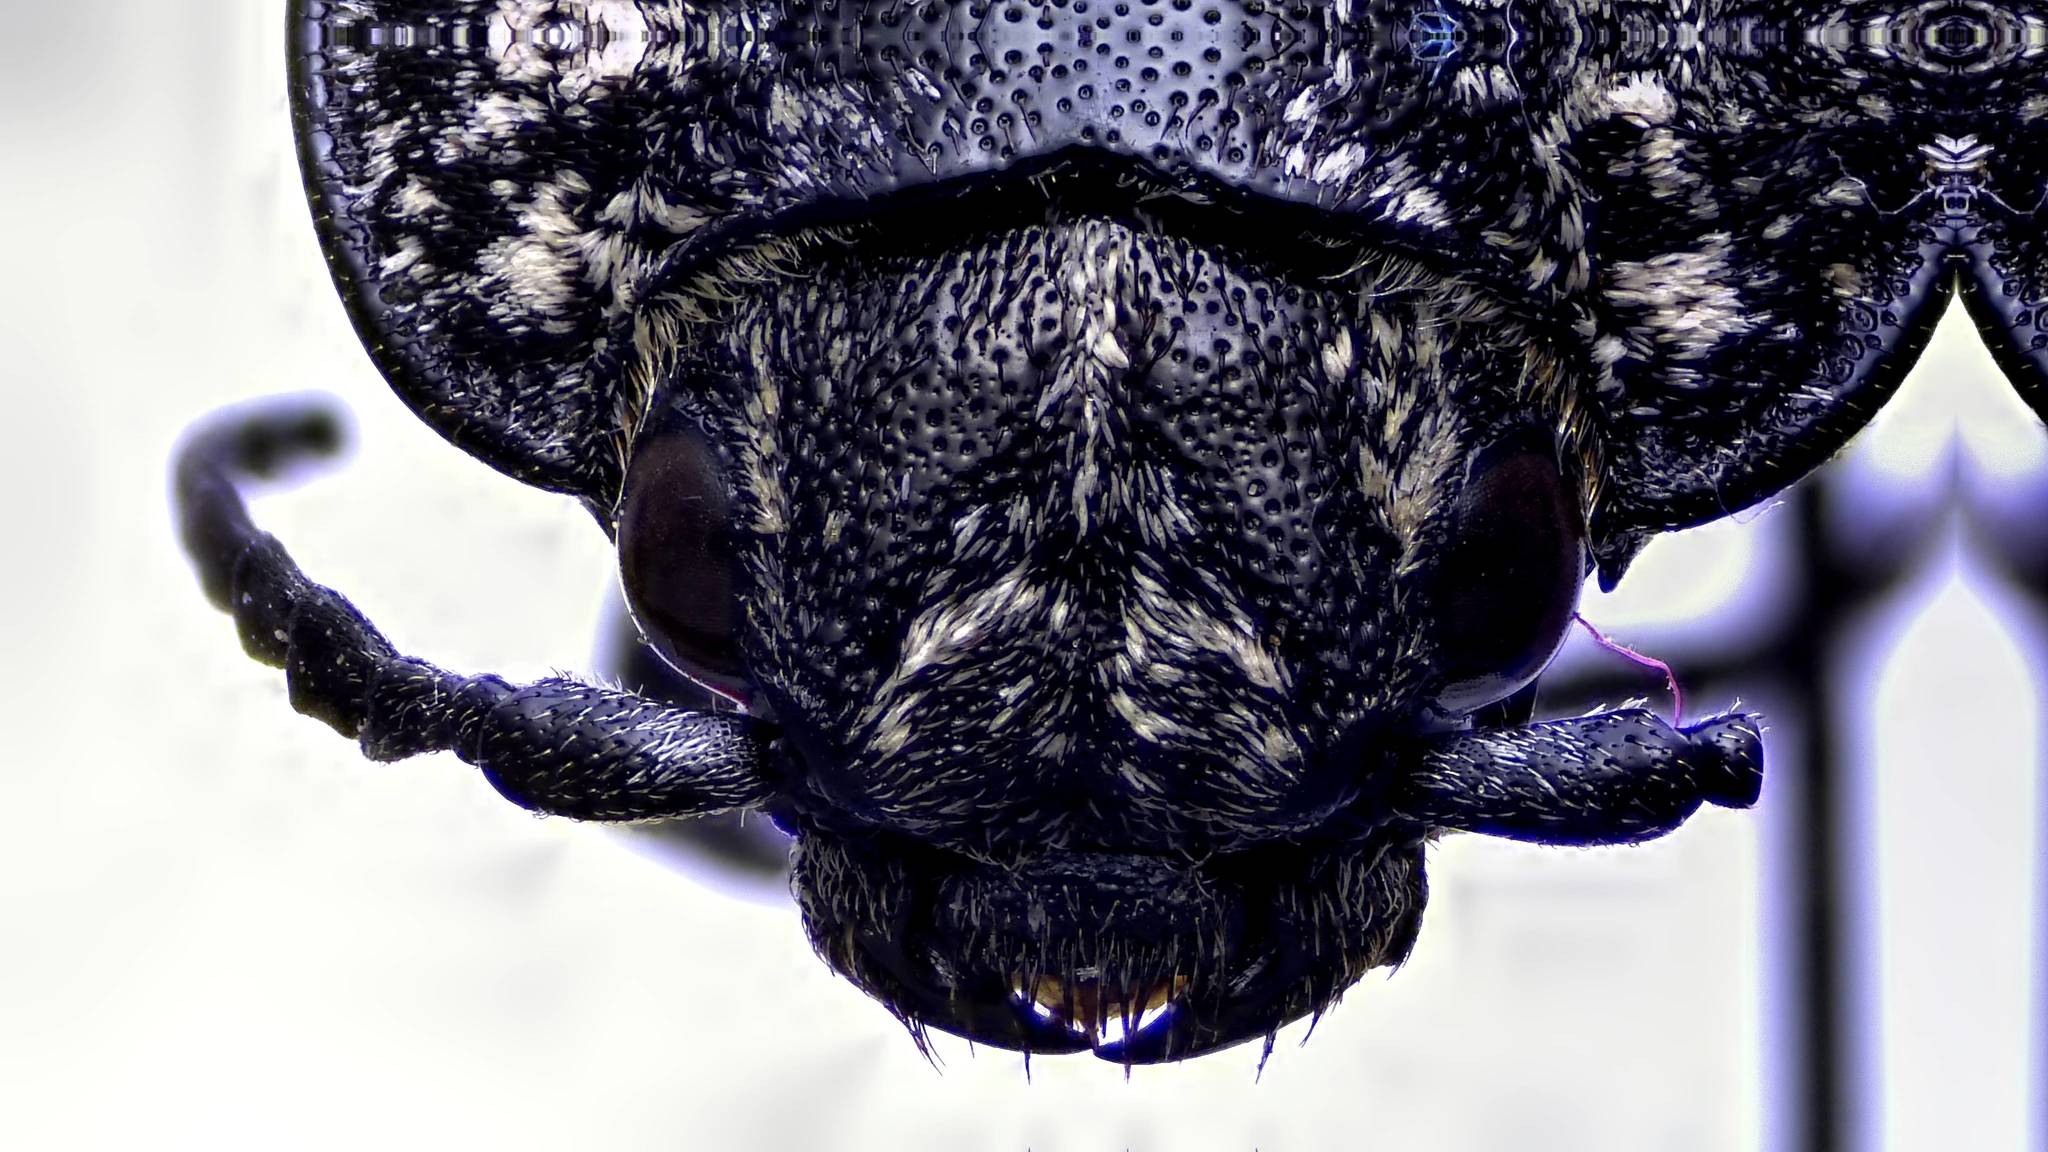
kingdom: Animalia
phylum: Arthropoda
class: Insecta
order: Coleoptera
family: Elateridae
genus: Alaus
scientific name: Alaus oculatus
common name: Eastern eyed click beetle
